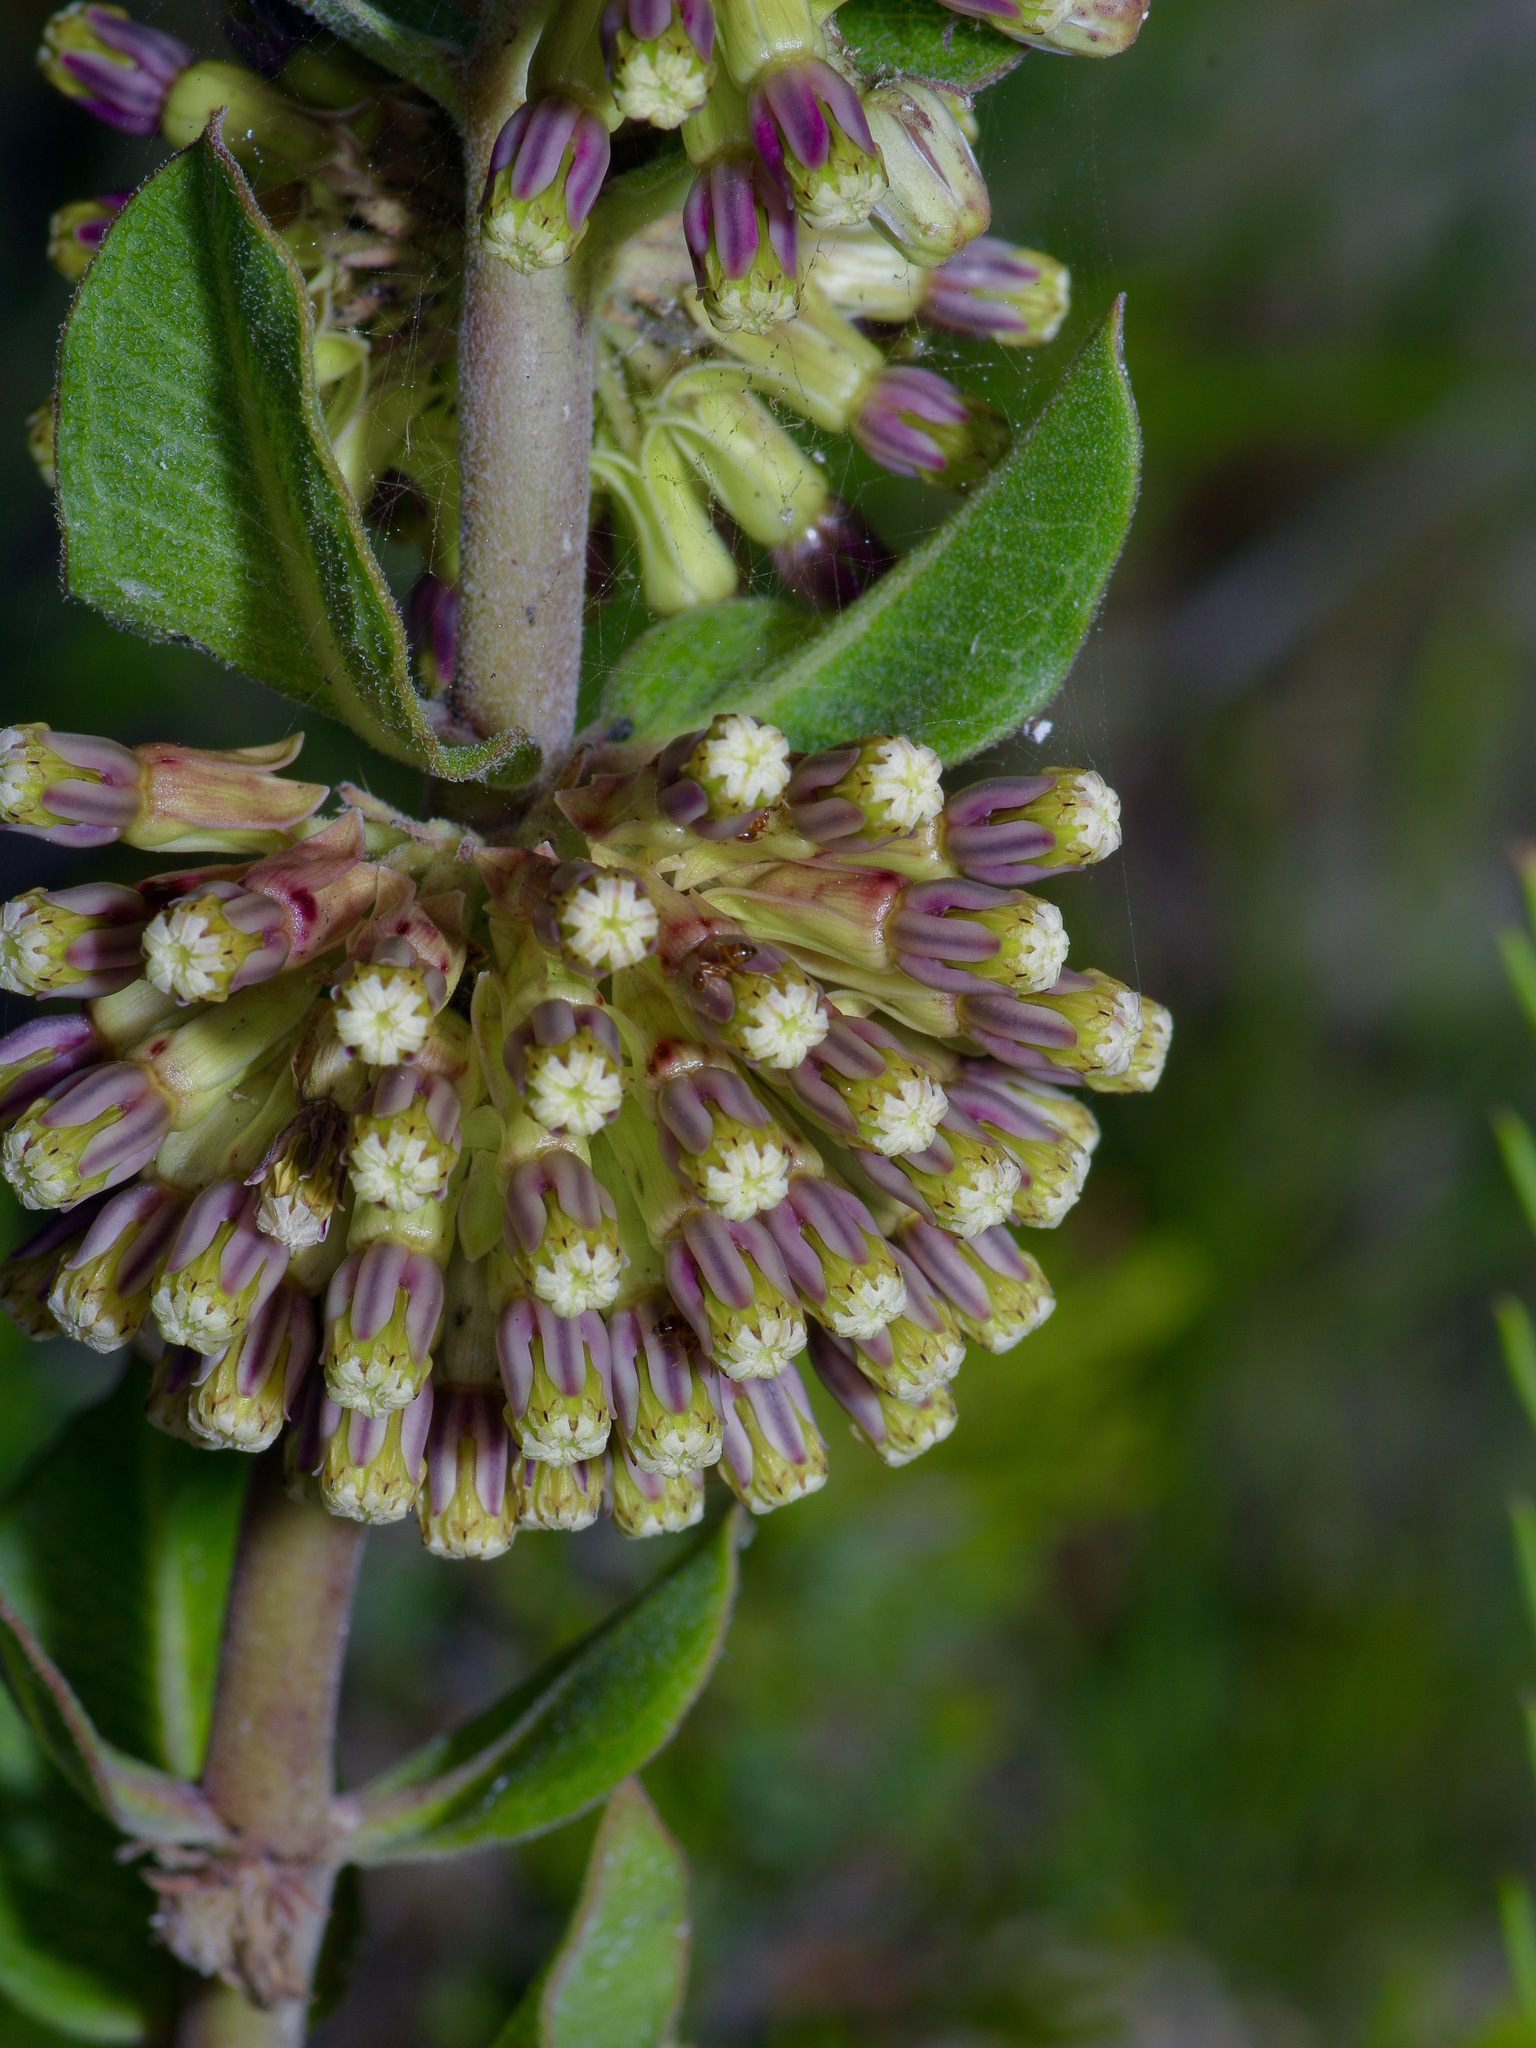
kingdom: Plantae
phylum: Tracheophyta
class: Magnoliopsida
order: Gentianales
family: Apocynaceae
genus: Asclepias
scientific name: Asclepias viridiflora
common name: Green comet milkweed
